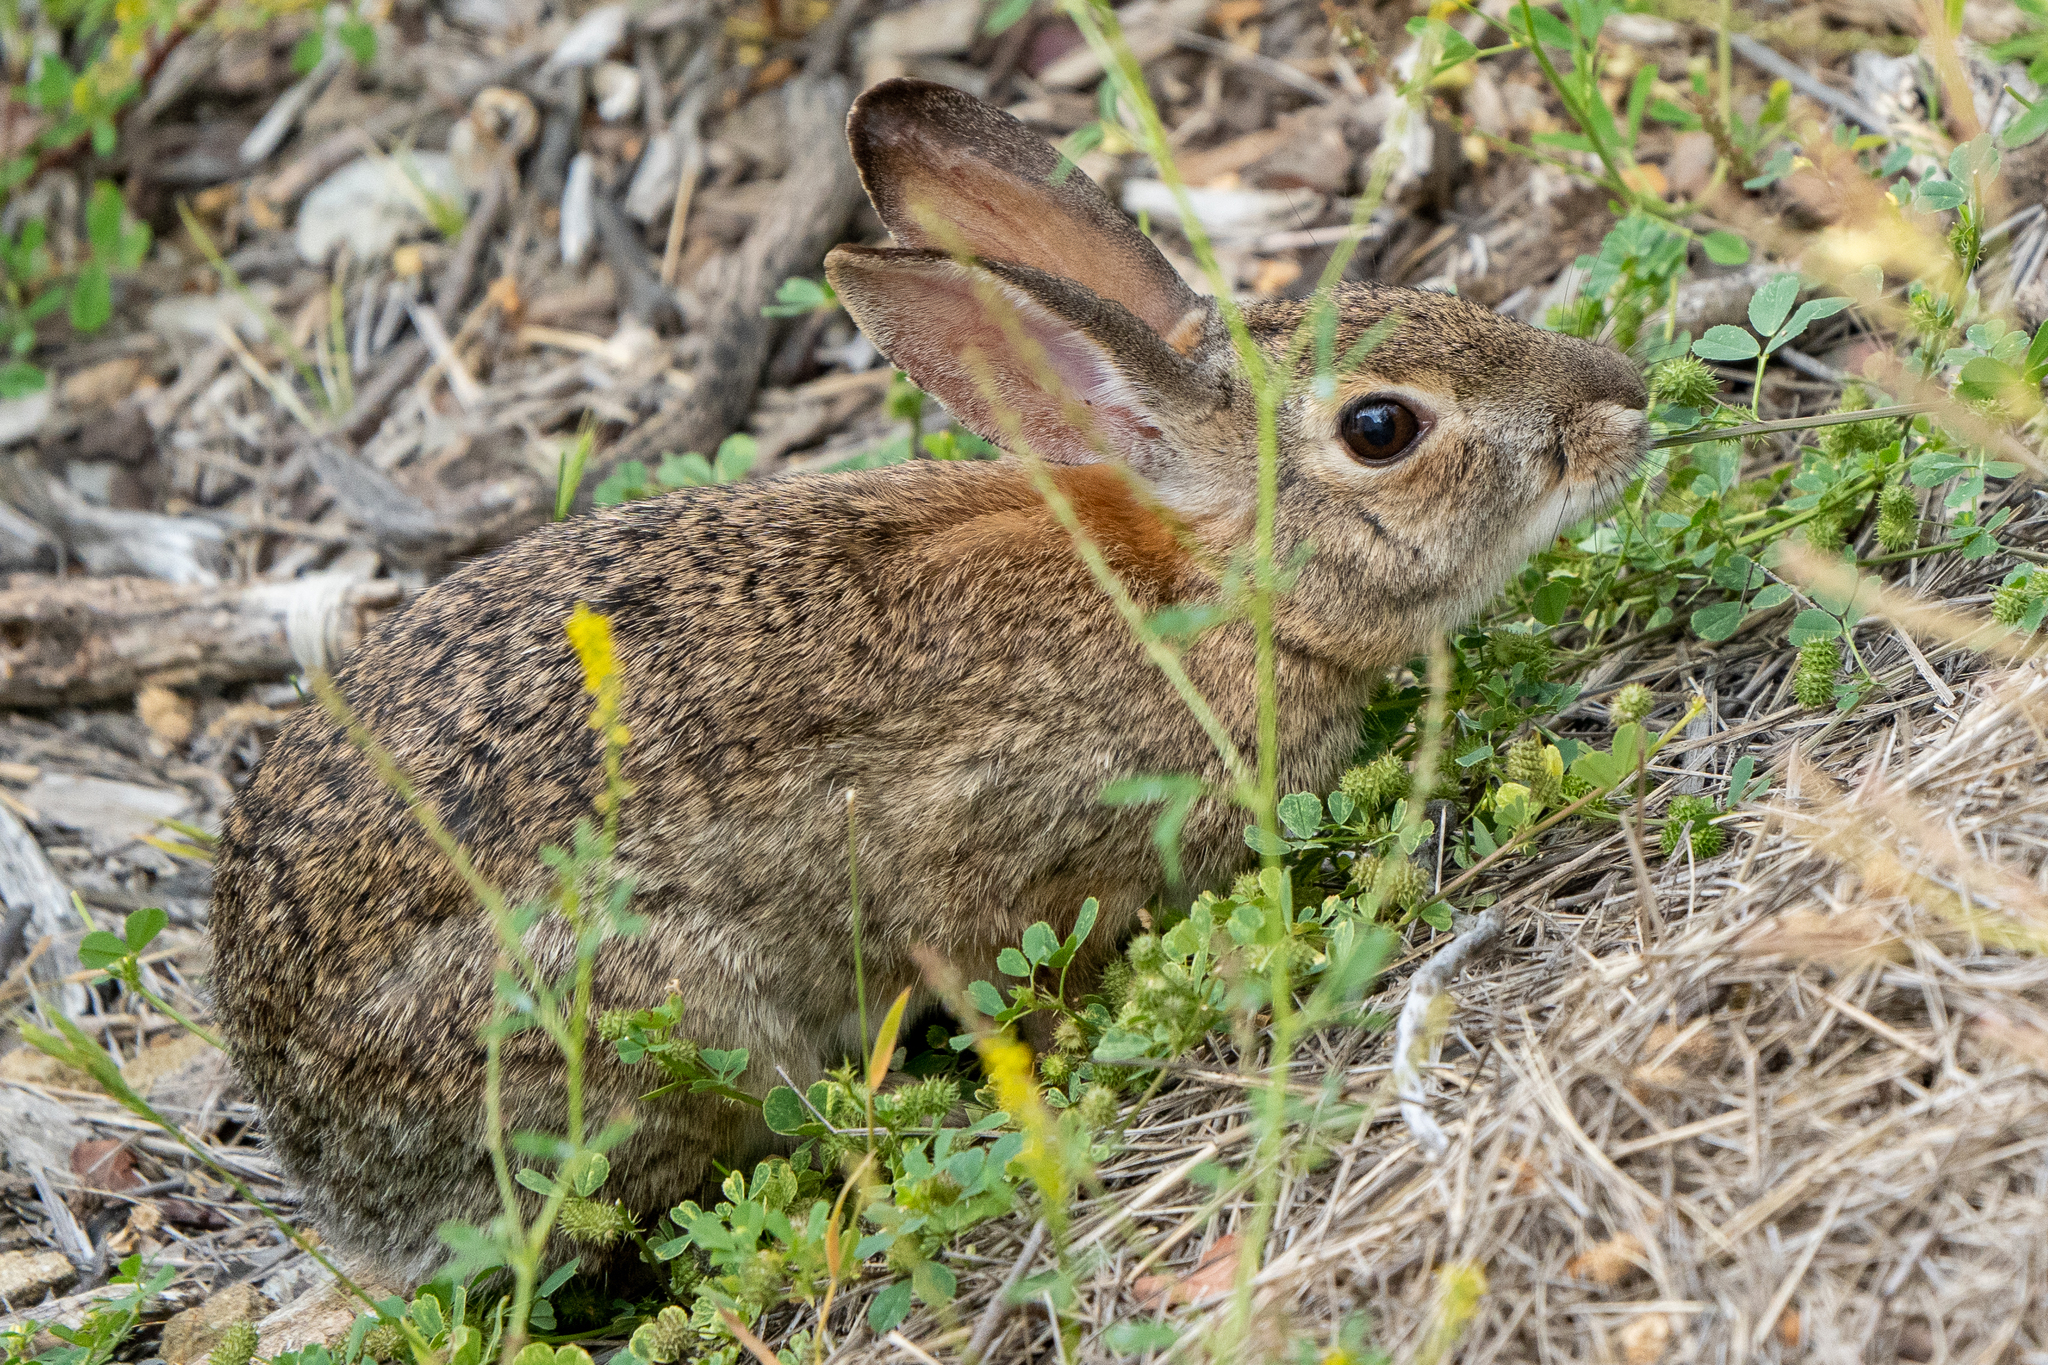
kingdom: Animalia
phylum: Chordata
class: Mammalia
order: Lagomorpha
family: Leporidae
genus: Sylvilagus
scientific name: Sylvilagus audubonii
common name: Desert cottontail
